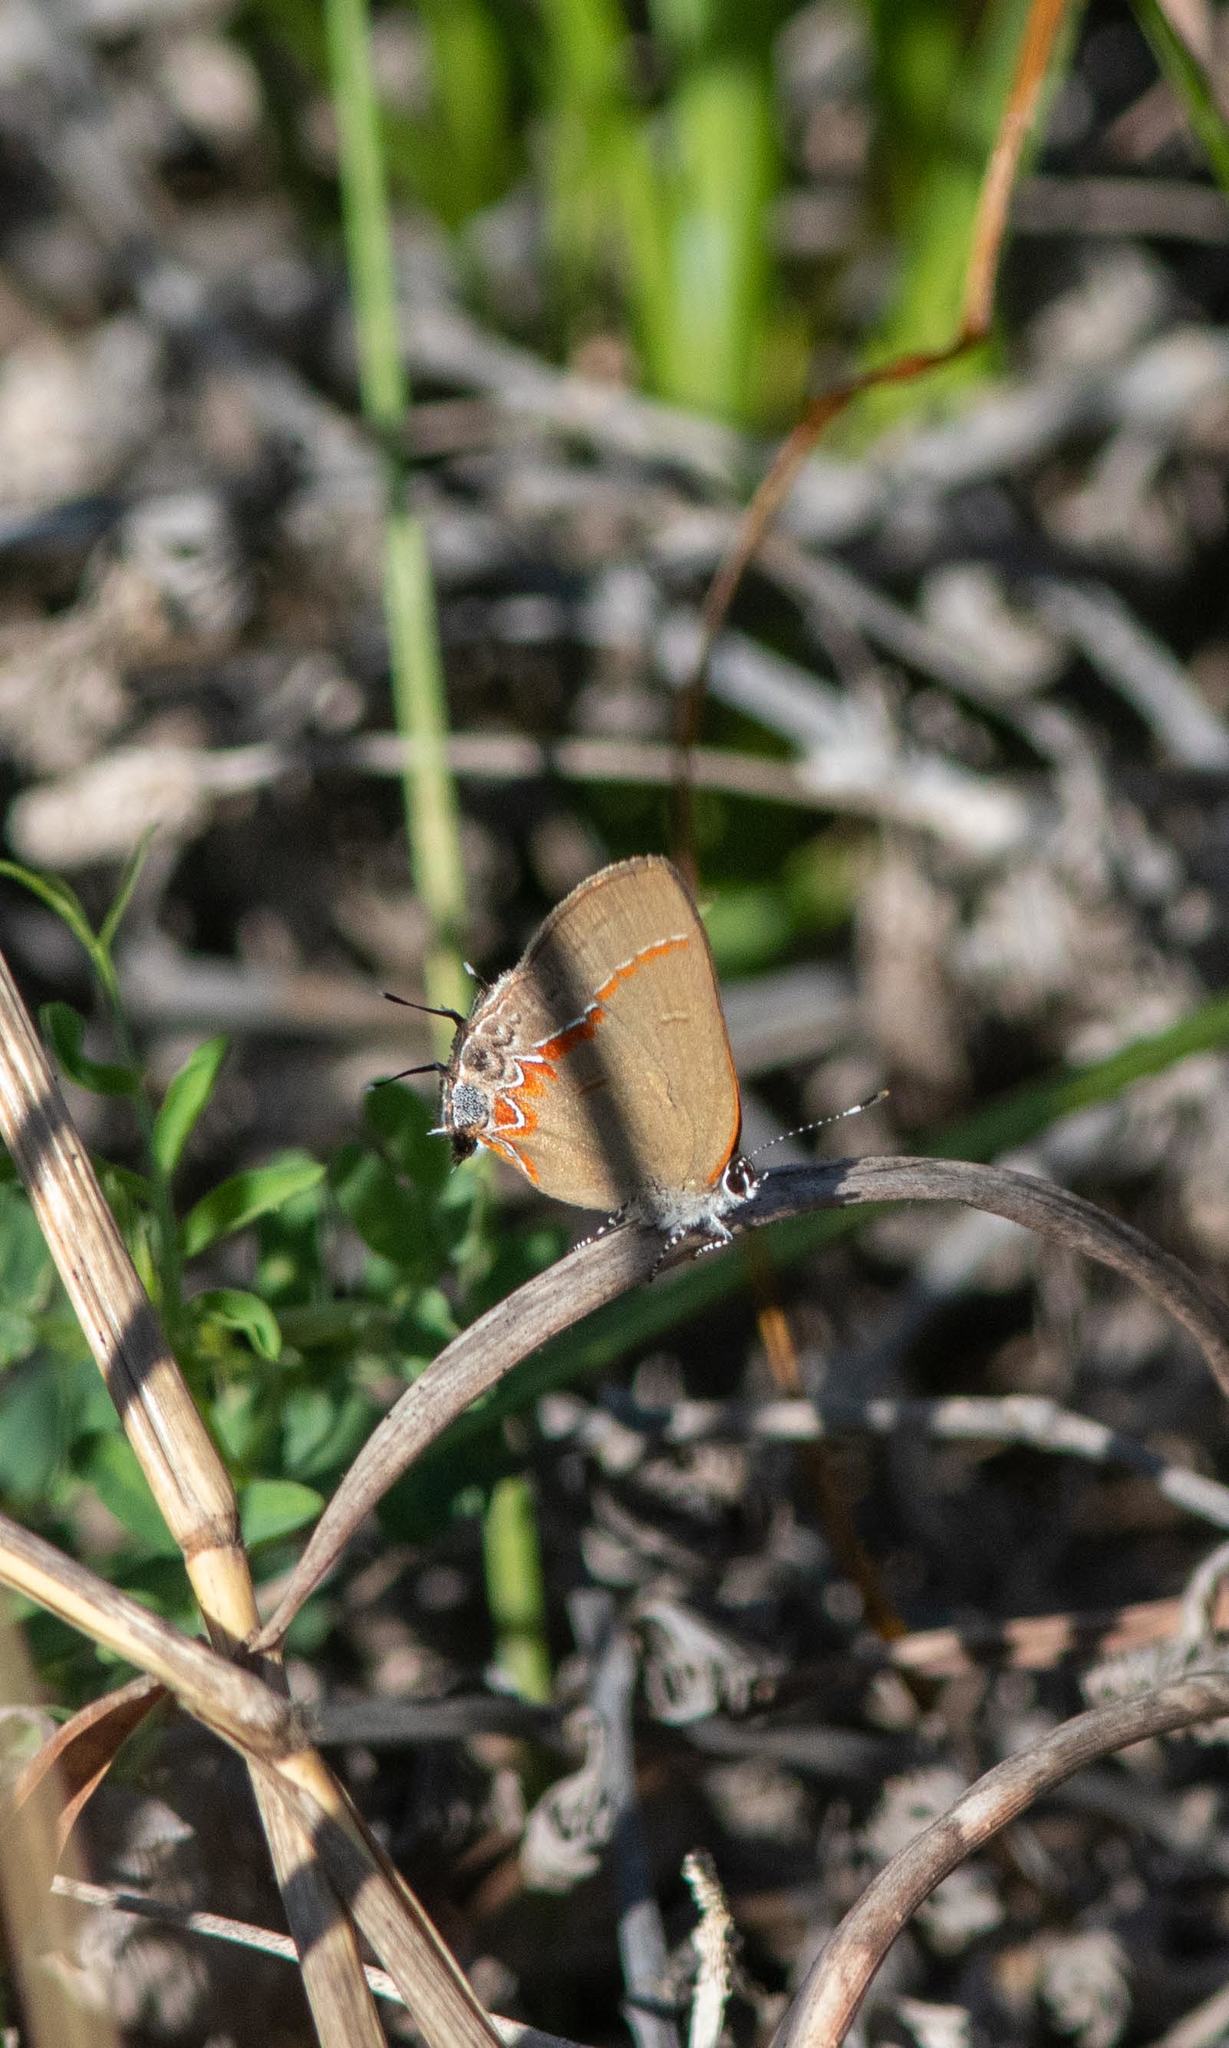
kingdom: Animalia
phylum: Arthropoda
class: Insecta
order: Lepidoptera
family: Lycaenidae
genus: Calycopis
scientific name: Calycopis isobeon
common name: Dusky-blue groundstreak
